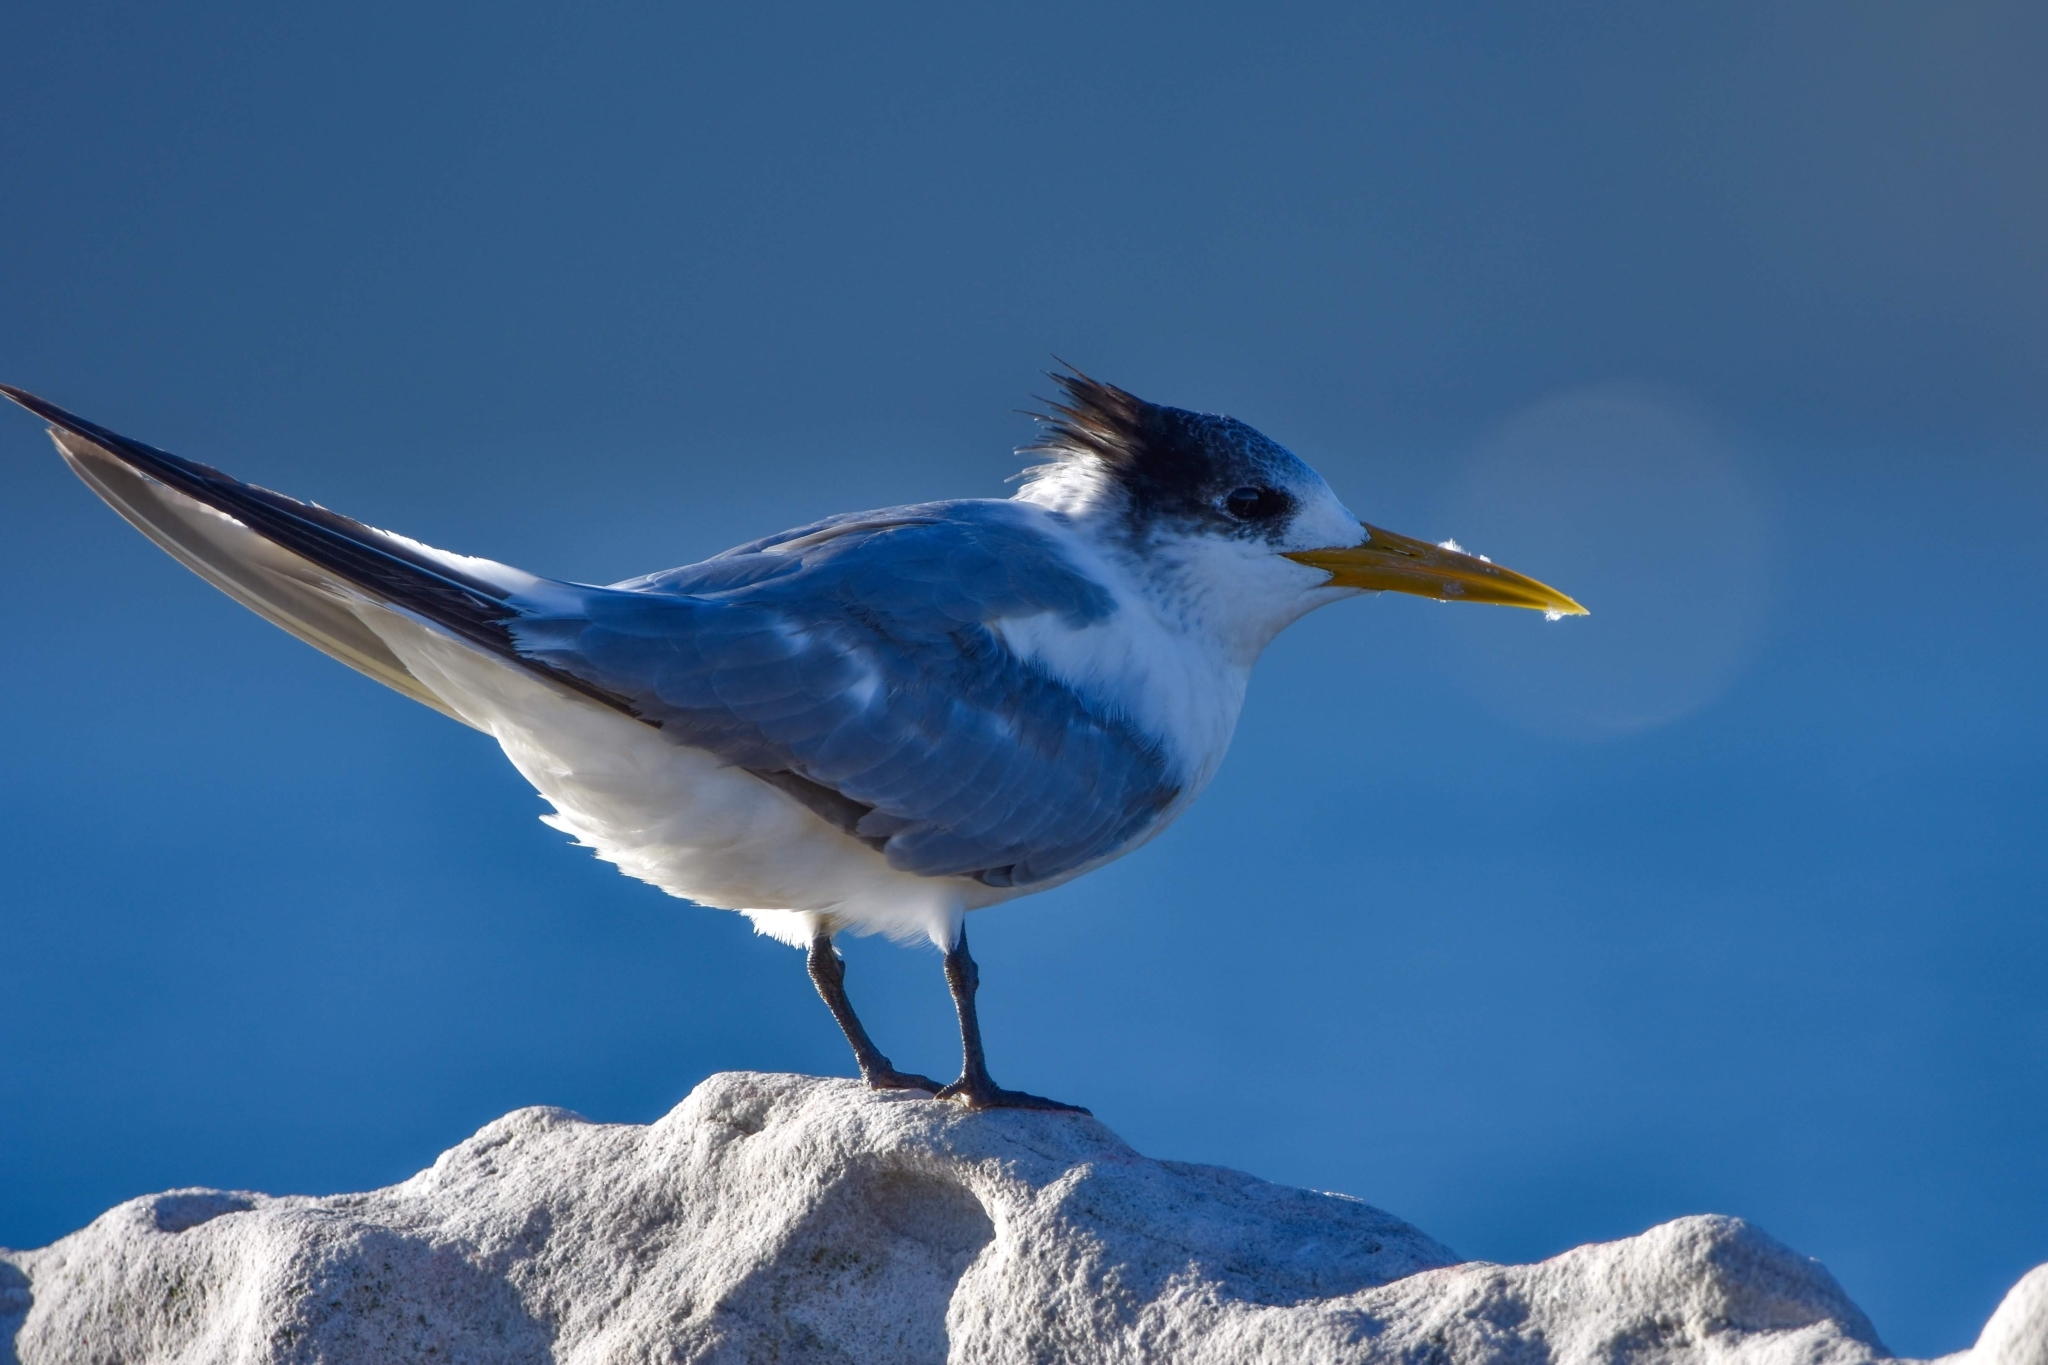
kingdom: Animalia
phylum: Chordata
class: Aves
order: Charadriiformes
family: Laridae
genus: Thalasseus
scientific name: Thalasseus bergii
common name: Greater crested tern
